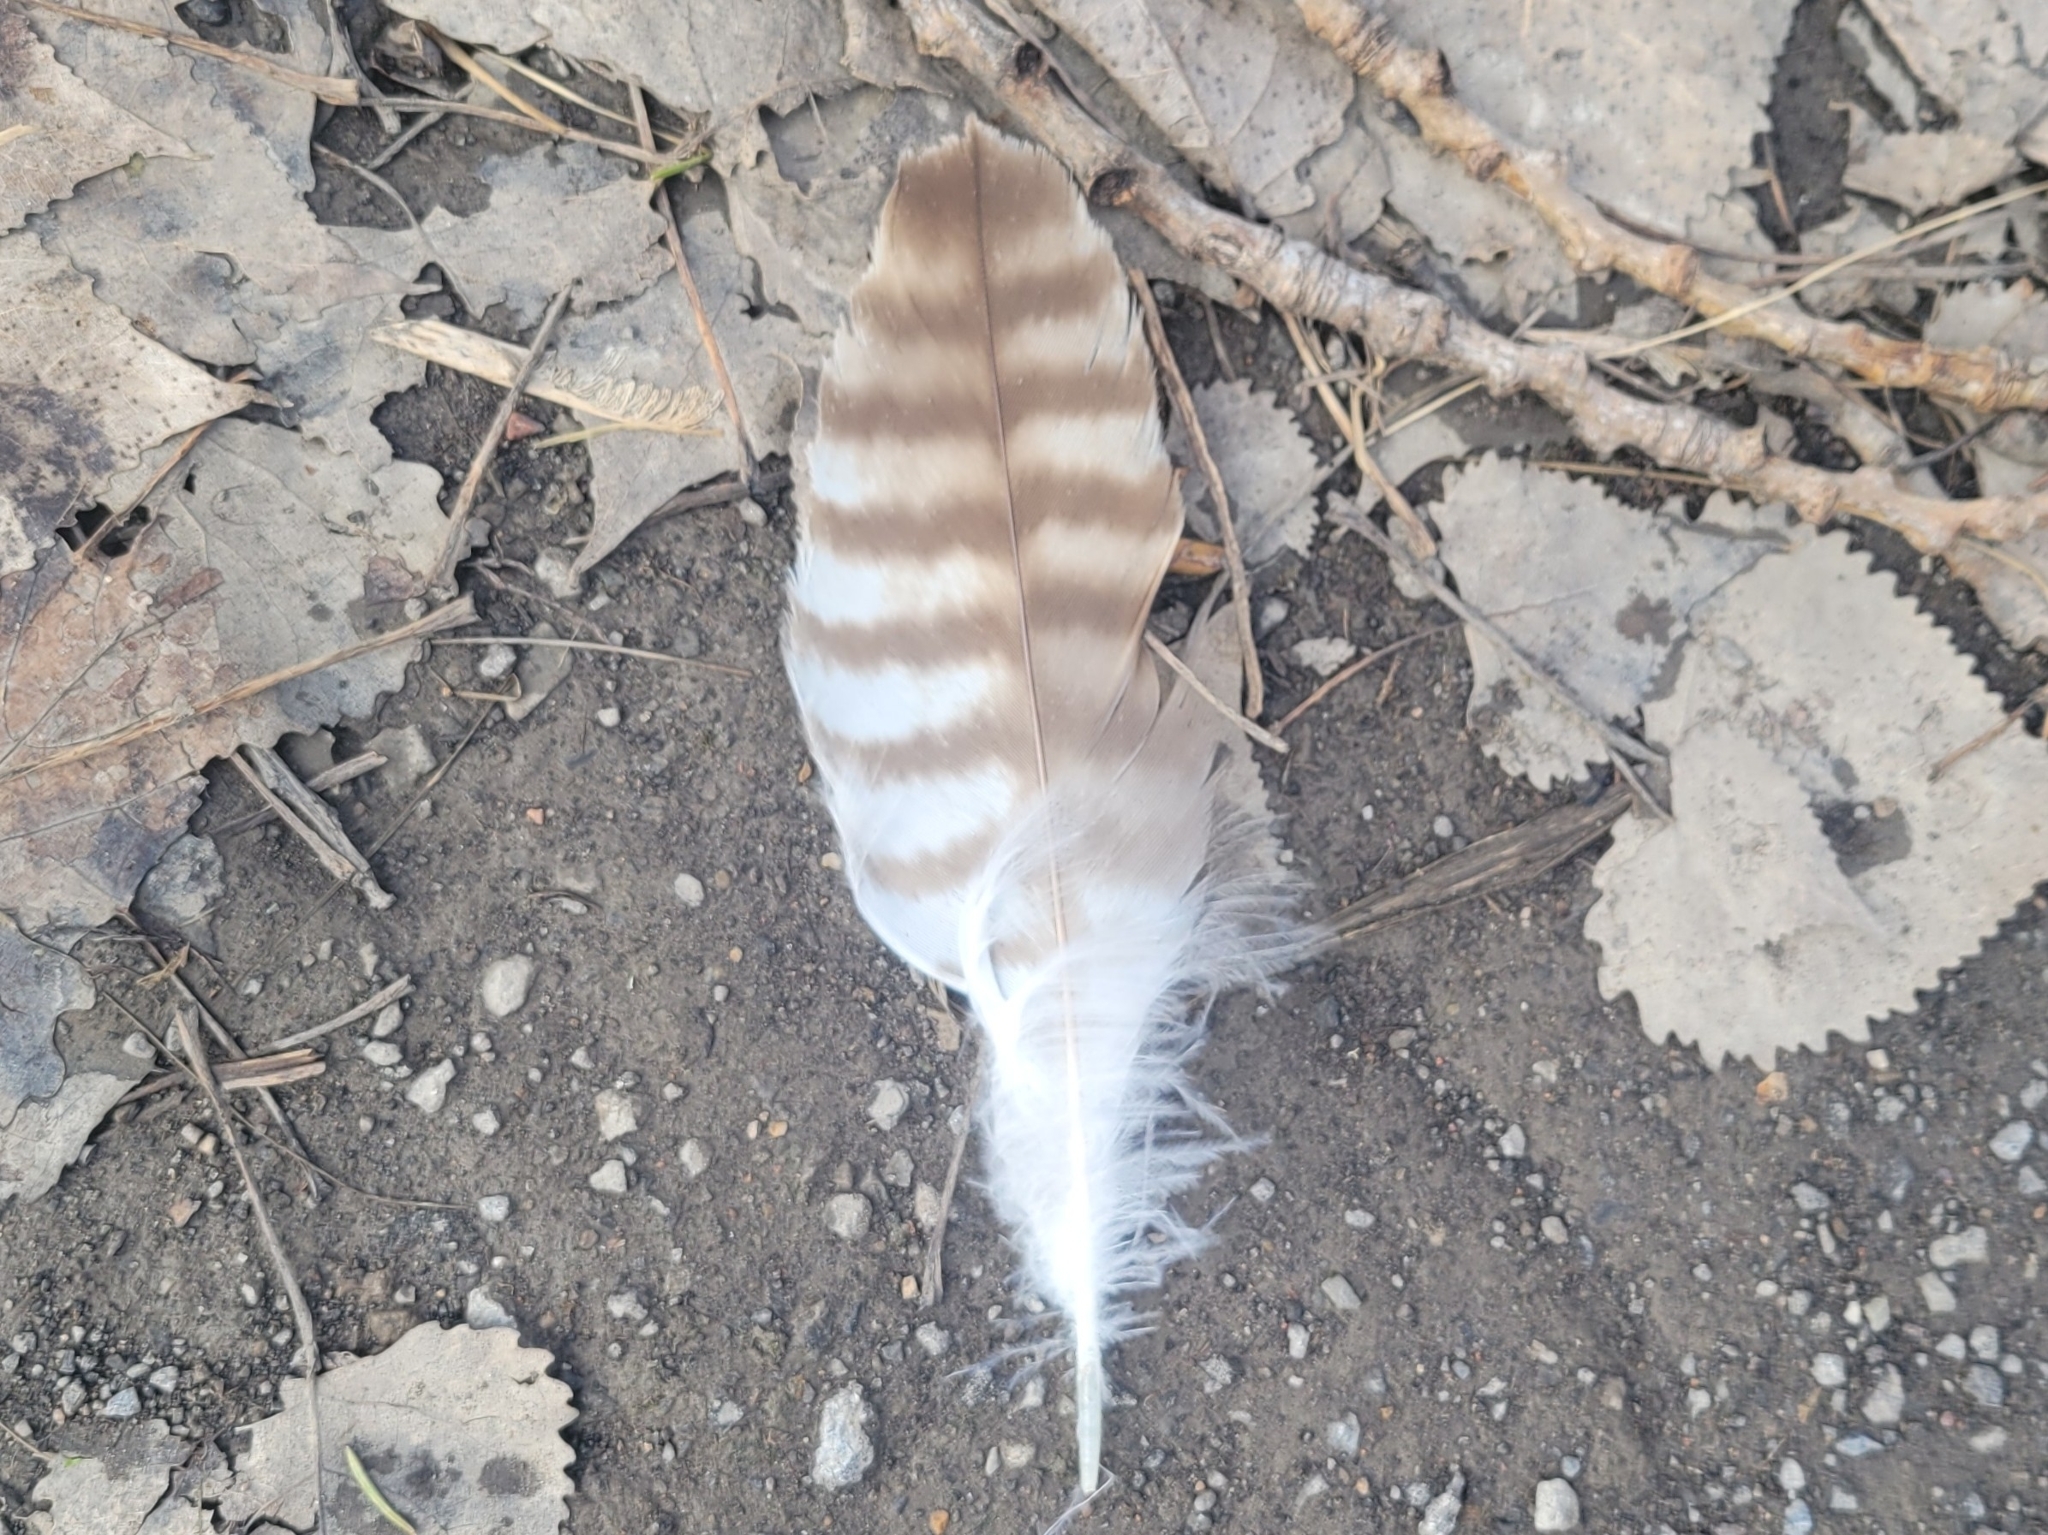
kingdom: Animalia
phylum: Chordata
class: Aves
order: Accipitriformes
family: Accipitridae
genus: Buteo
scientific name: Buteo jamaicensis
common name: Red-tailed hawk
